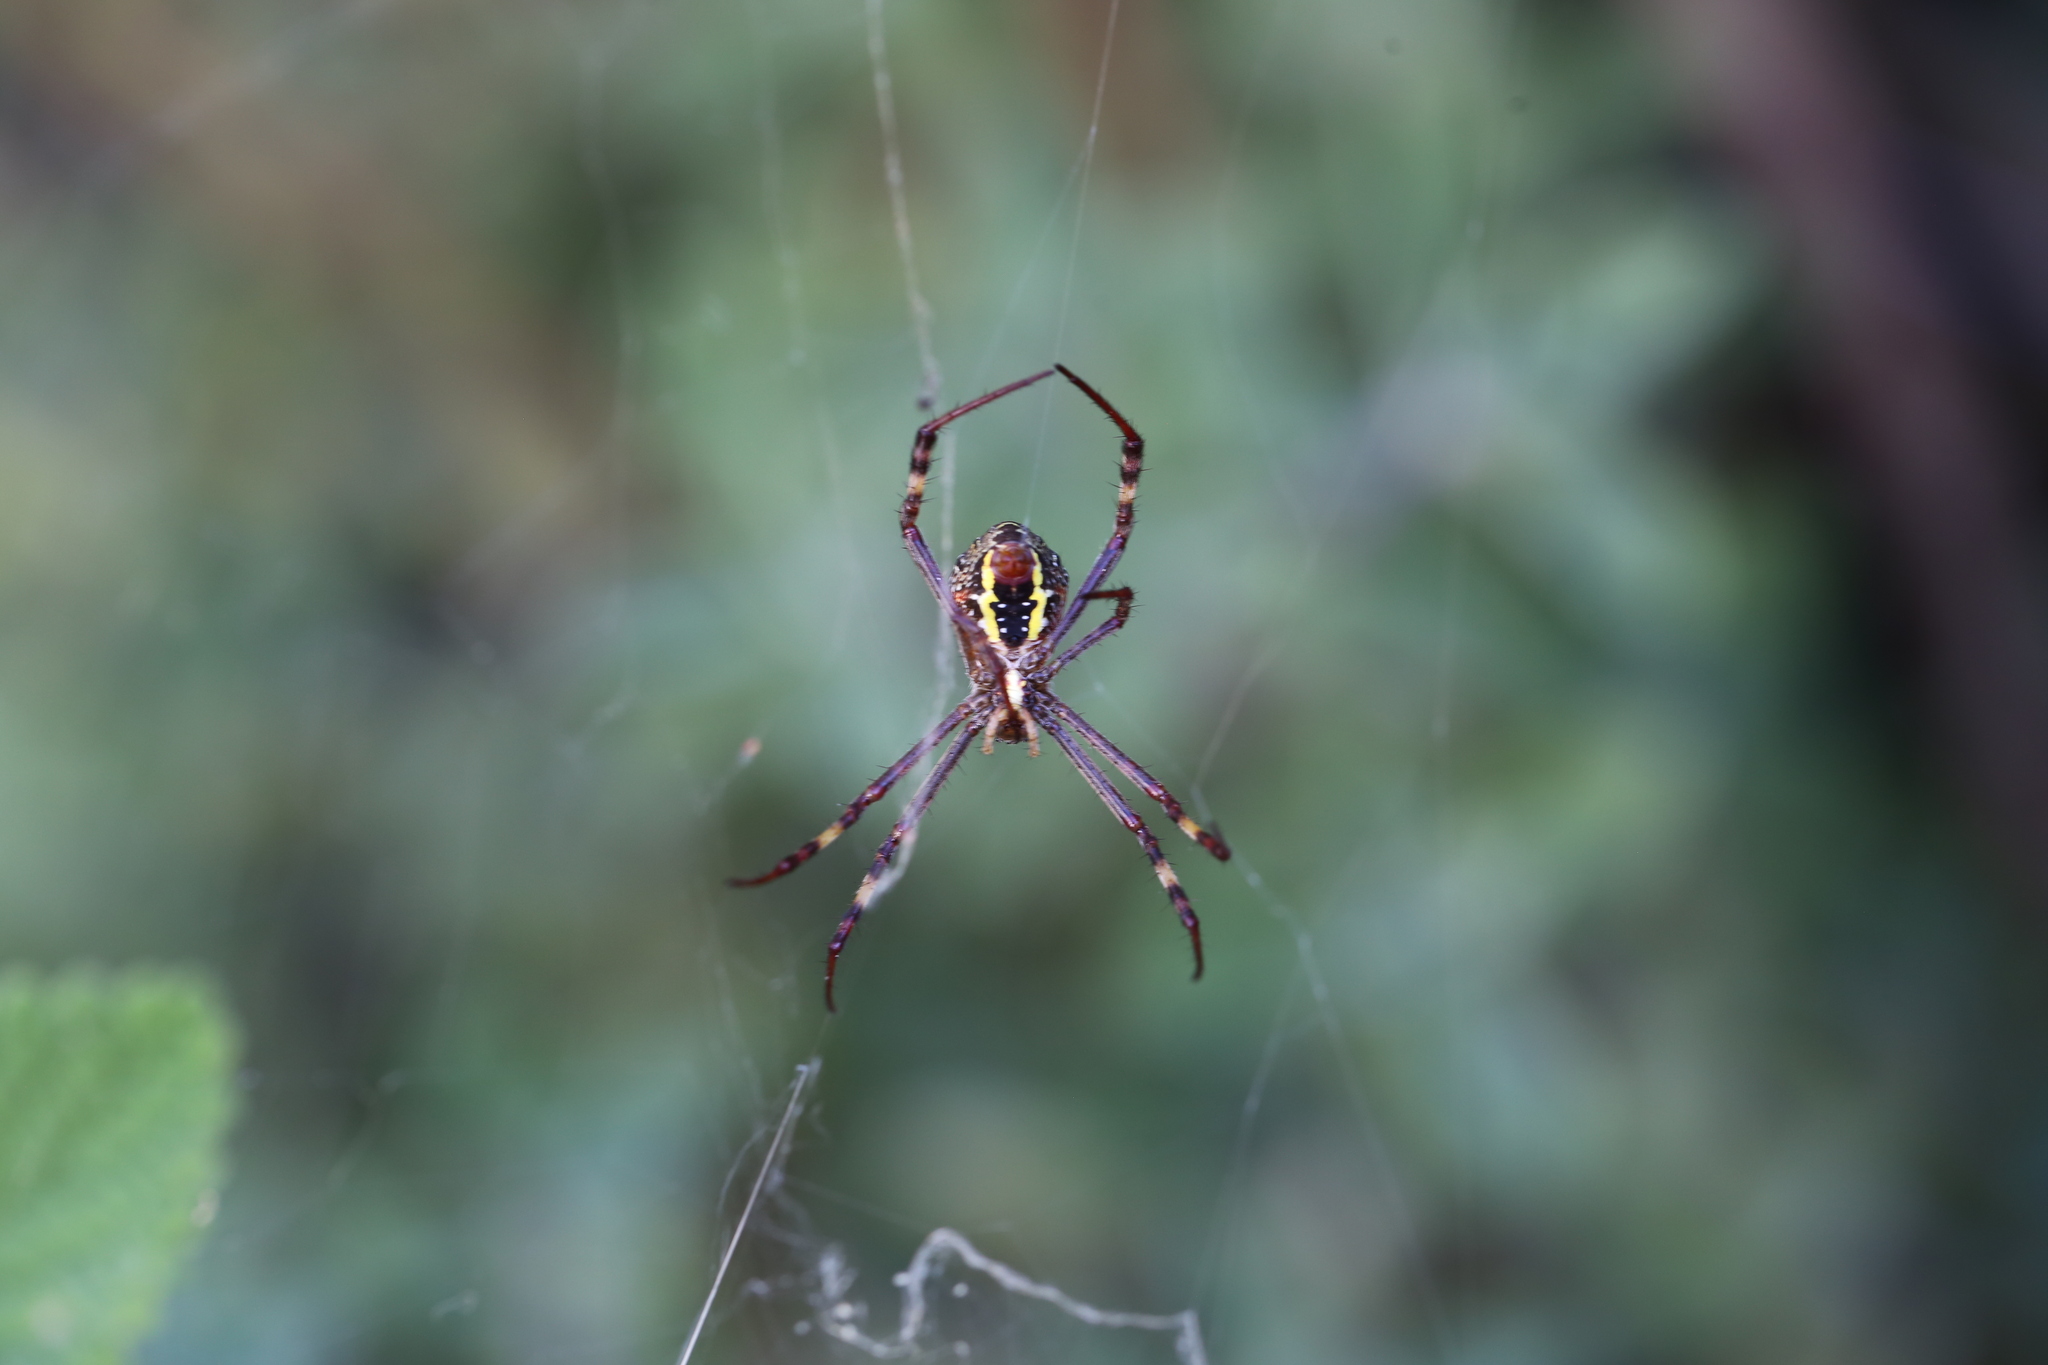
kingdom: Animalia
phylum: Arthropoda
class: Arachnida
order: Araneae
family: Araneidae
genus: Argiope
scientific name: Argiope keyserlingi
